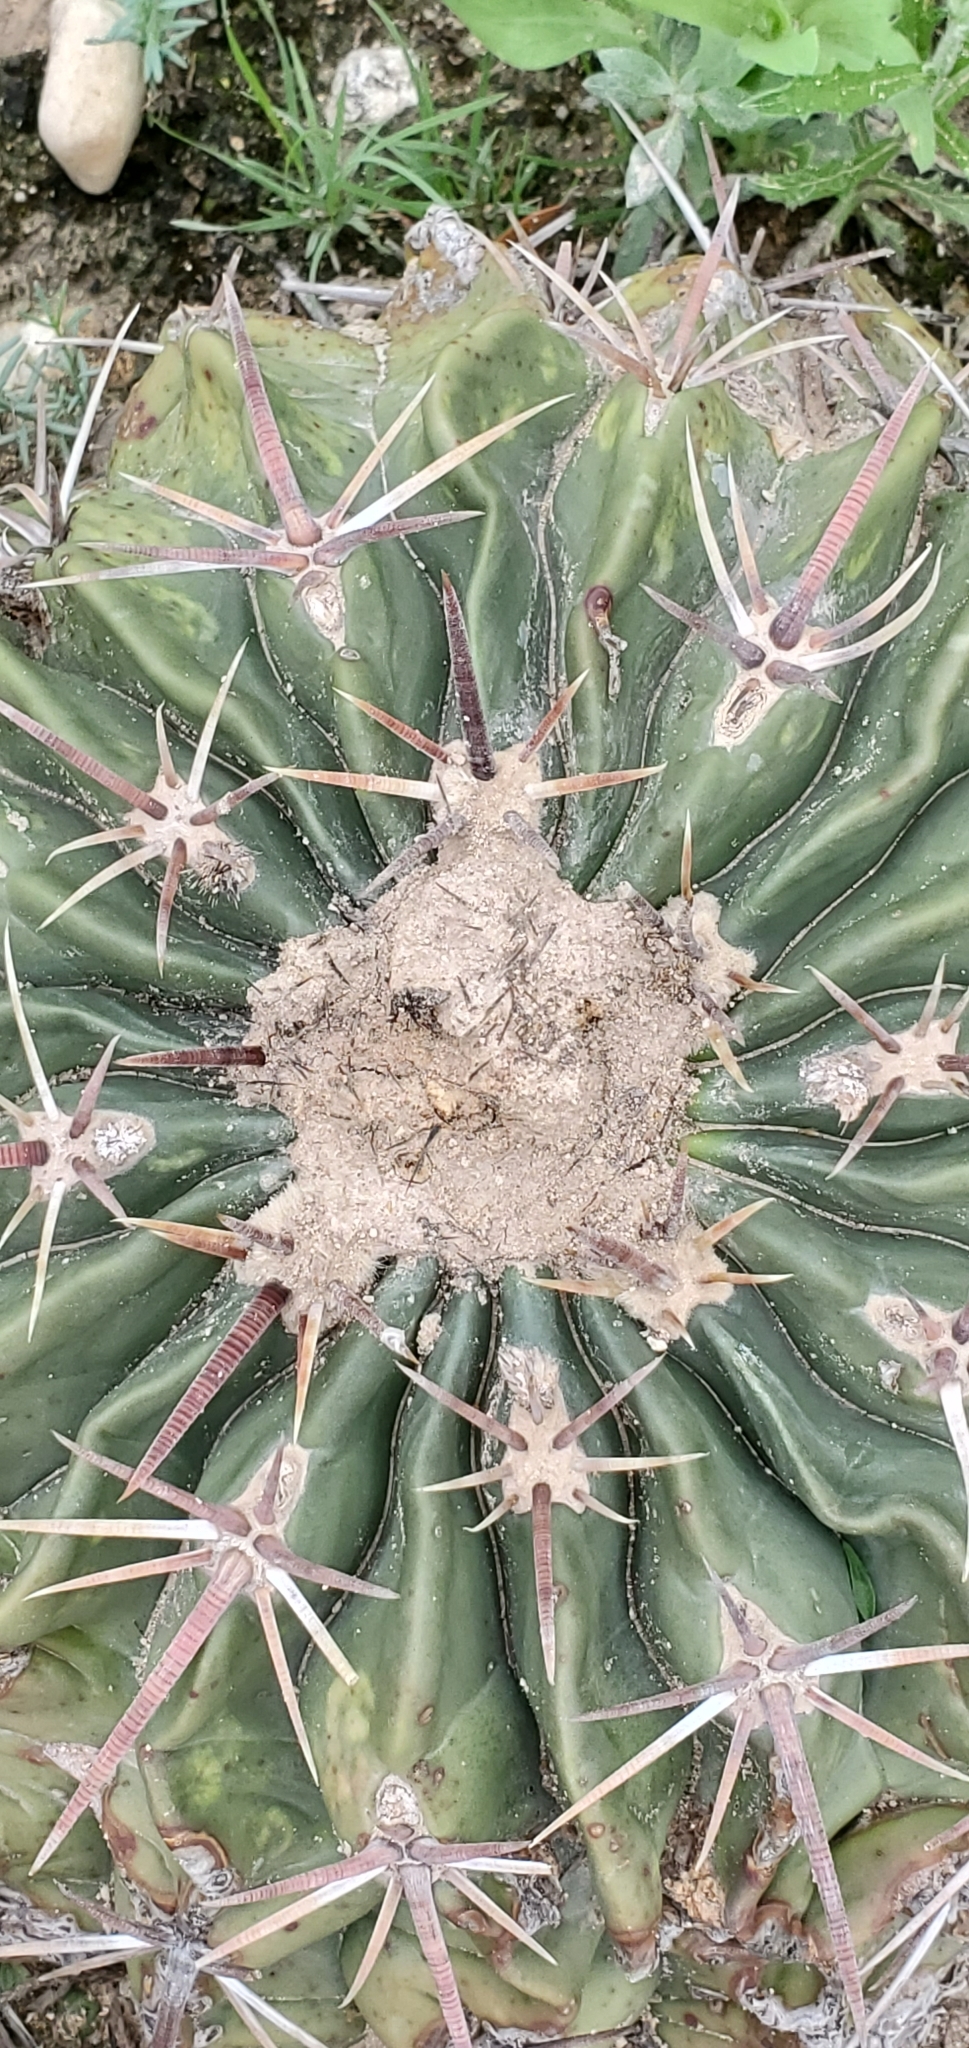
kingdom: Plantae
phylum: Tracheophyta
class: Magnoliopsida
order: Caryophyllales
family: Cactaceae
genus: Echinocactus
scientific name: Echinocactus texensis
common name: Devil's pincushion
